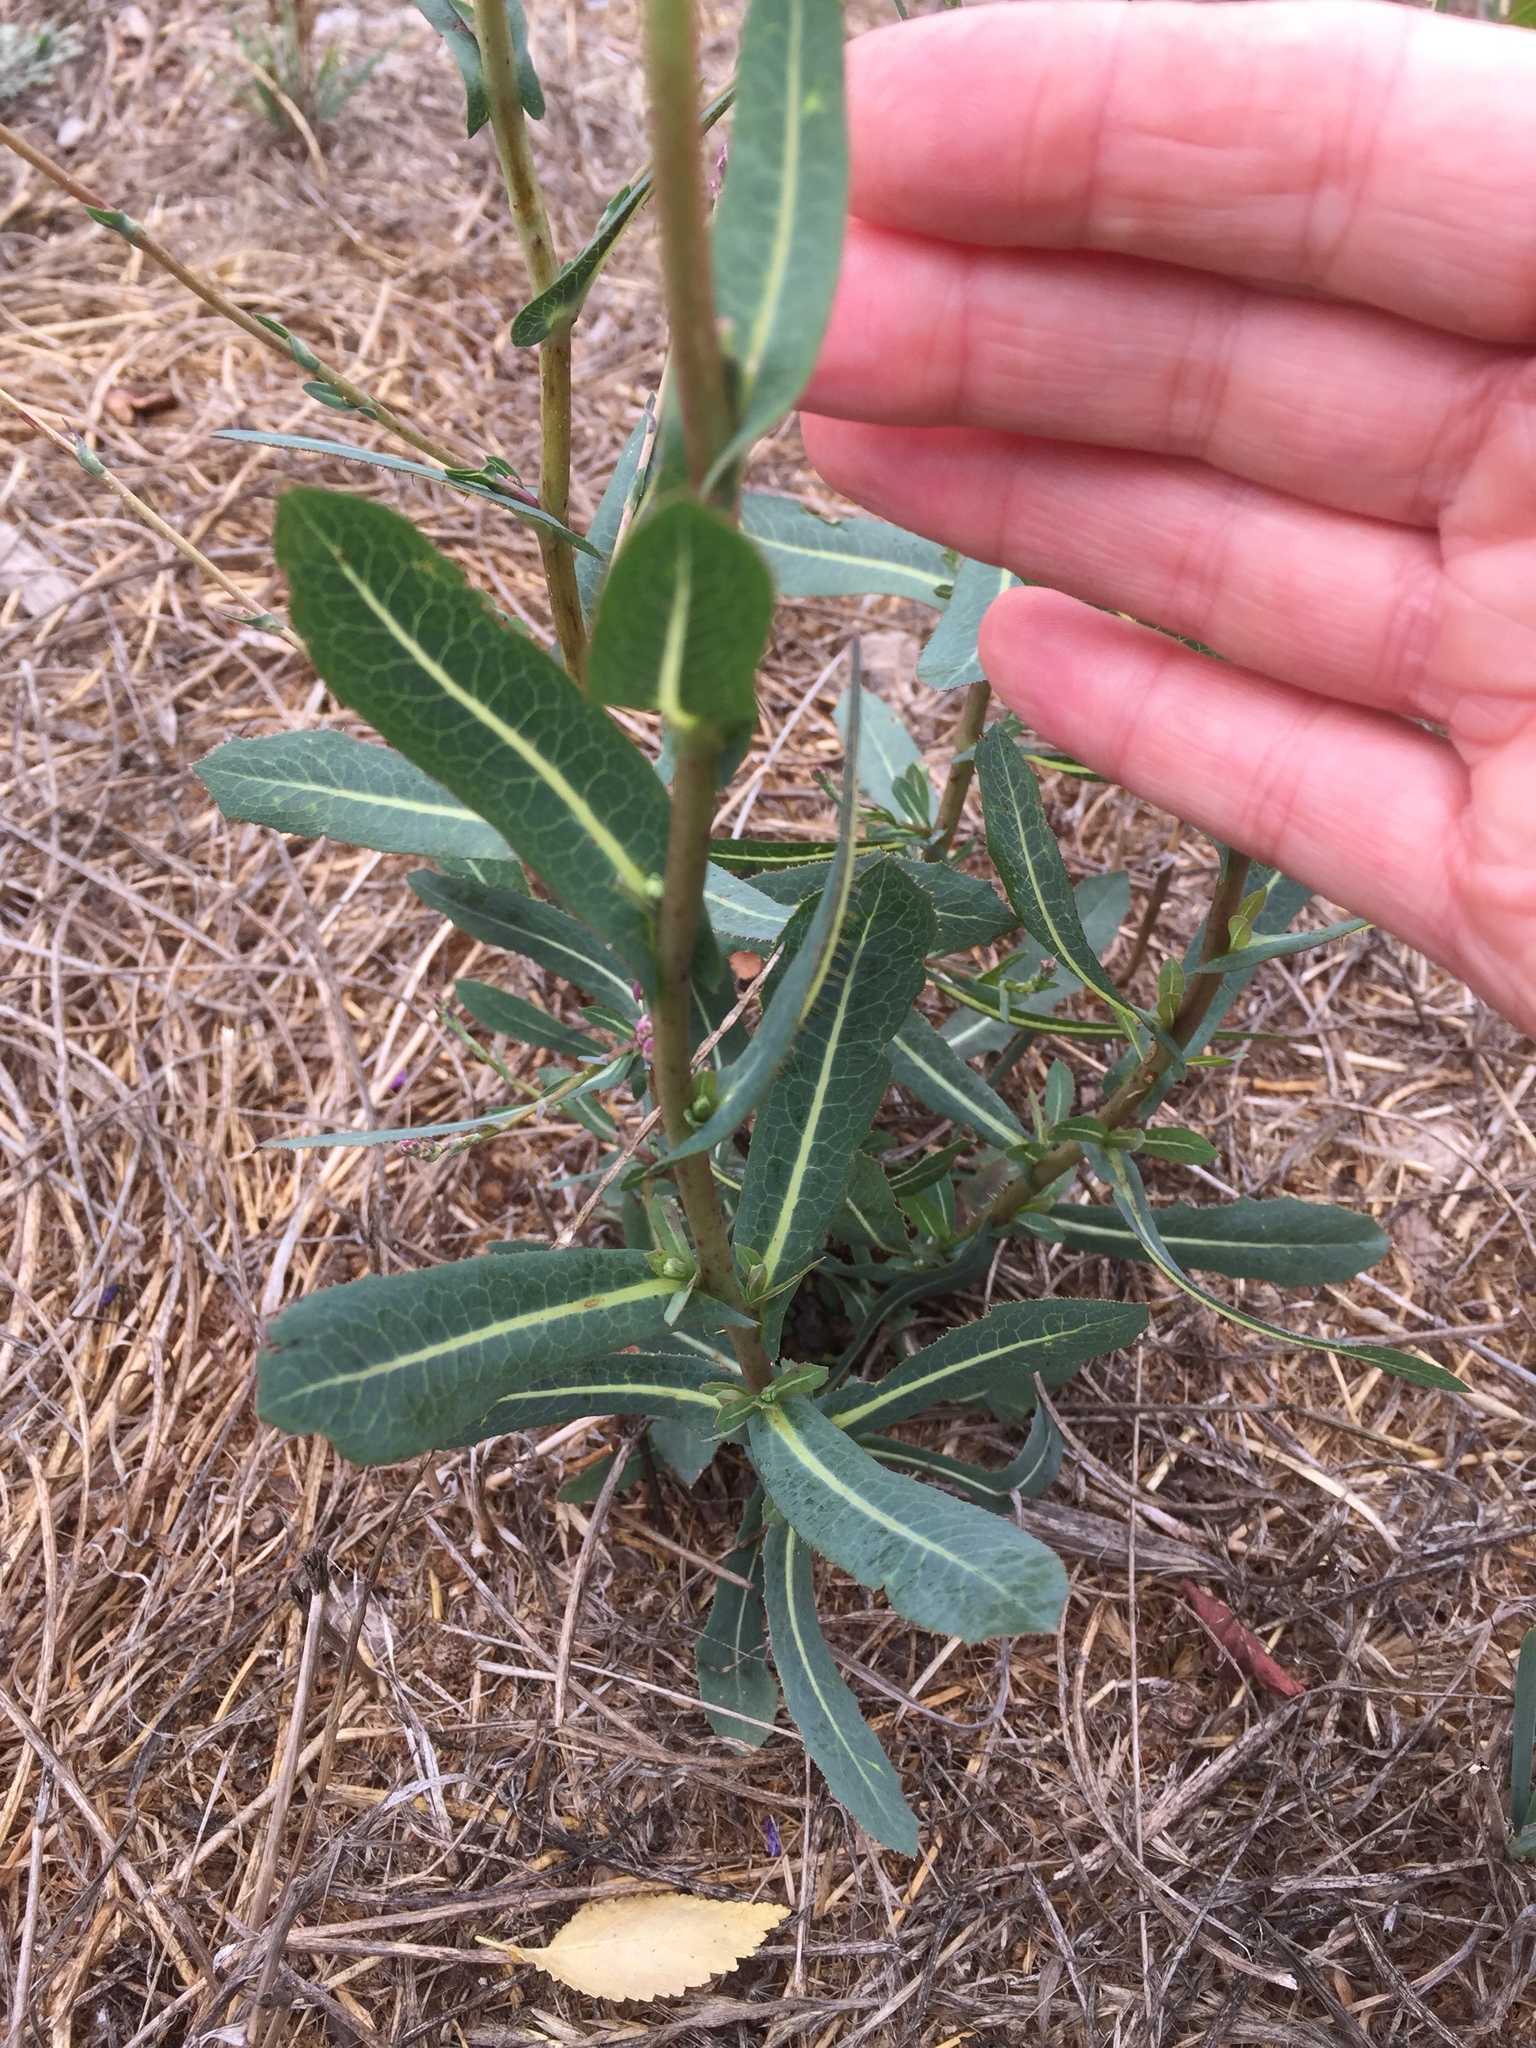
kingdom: Plantae
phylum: Tracheophyta
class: Magnoliopsida
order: Asterales
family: Asteraceae
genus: Lactuca
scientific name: Lactuca serriola
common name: Prickly lettuce
